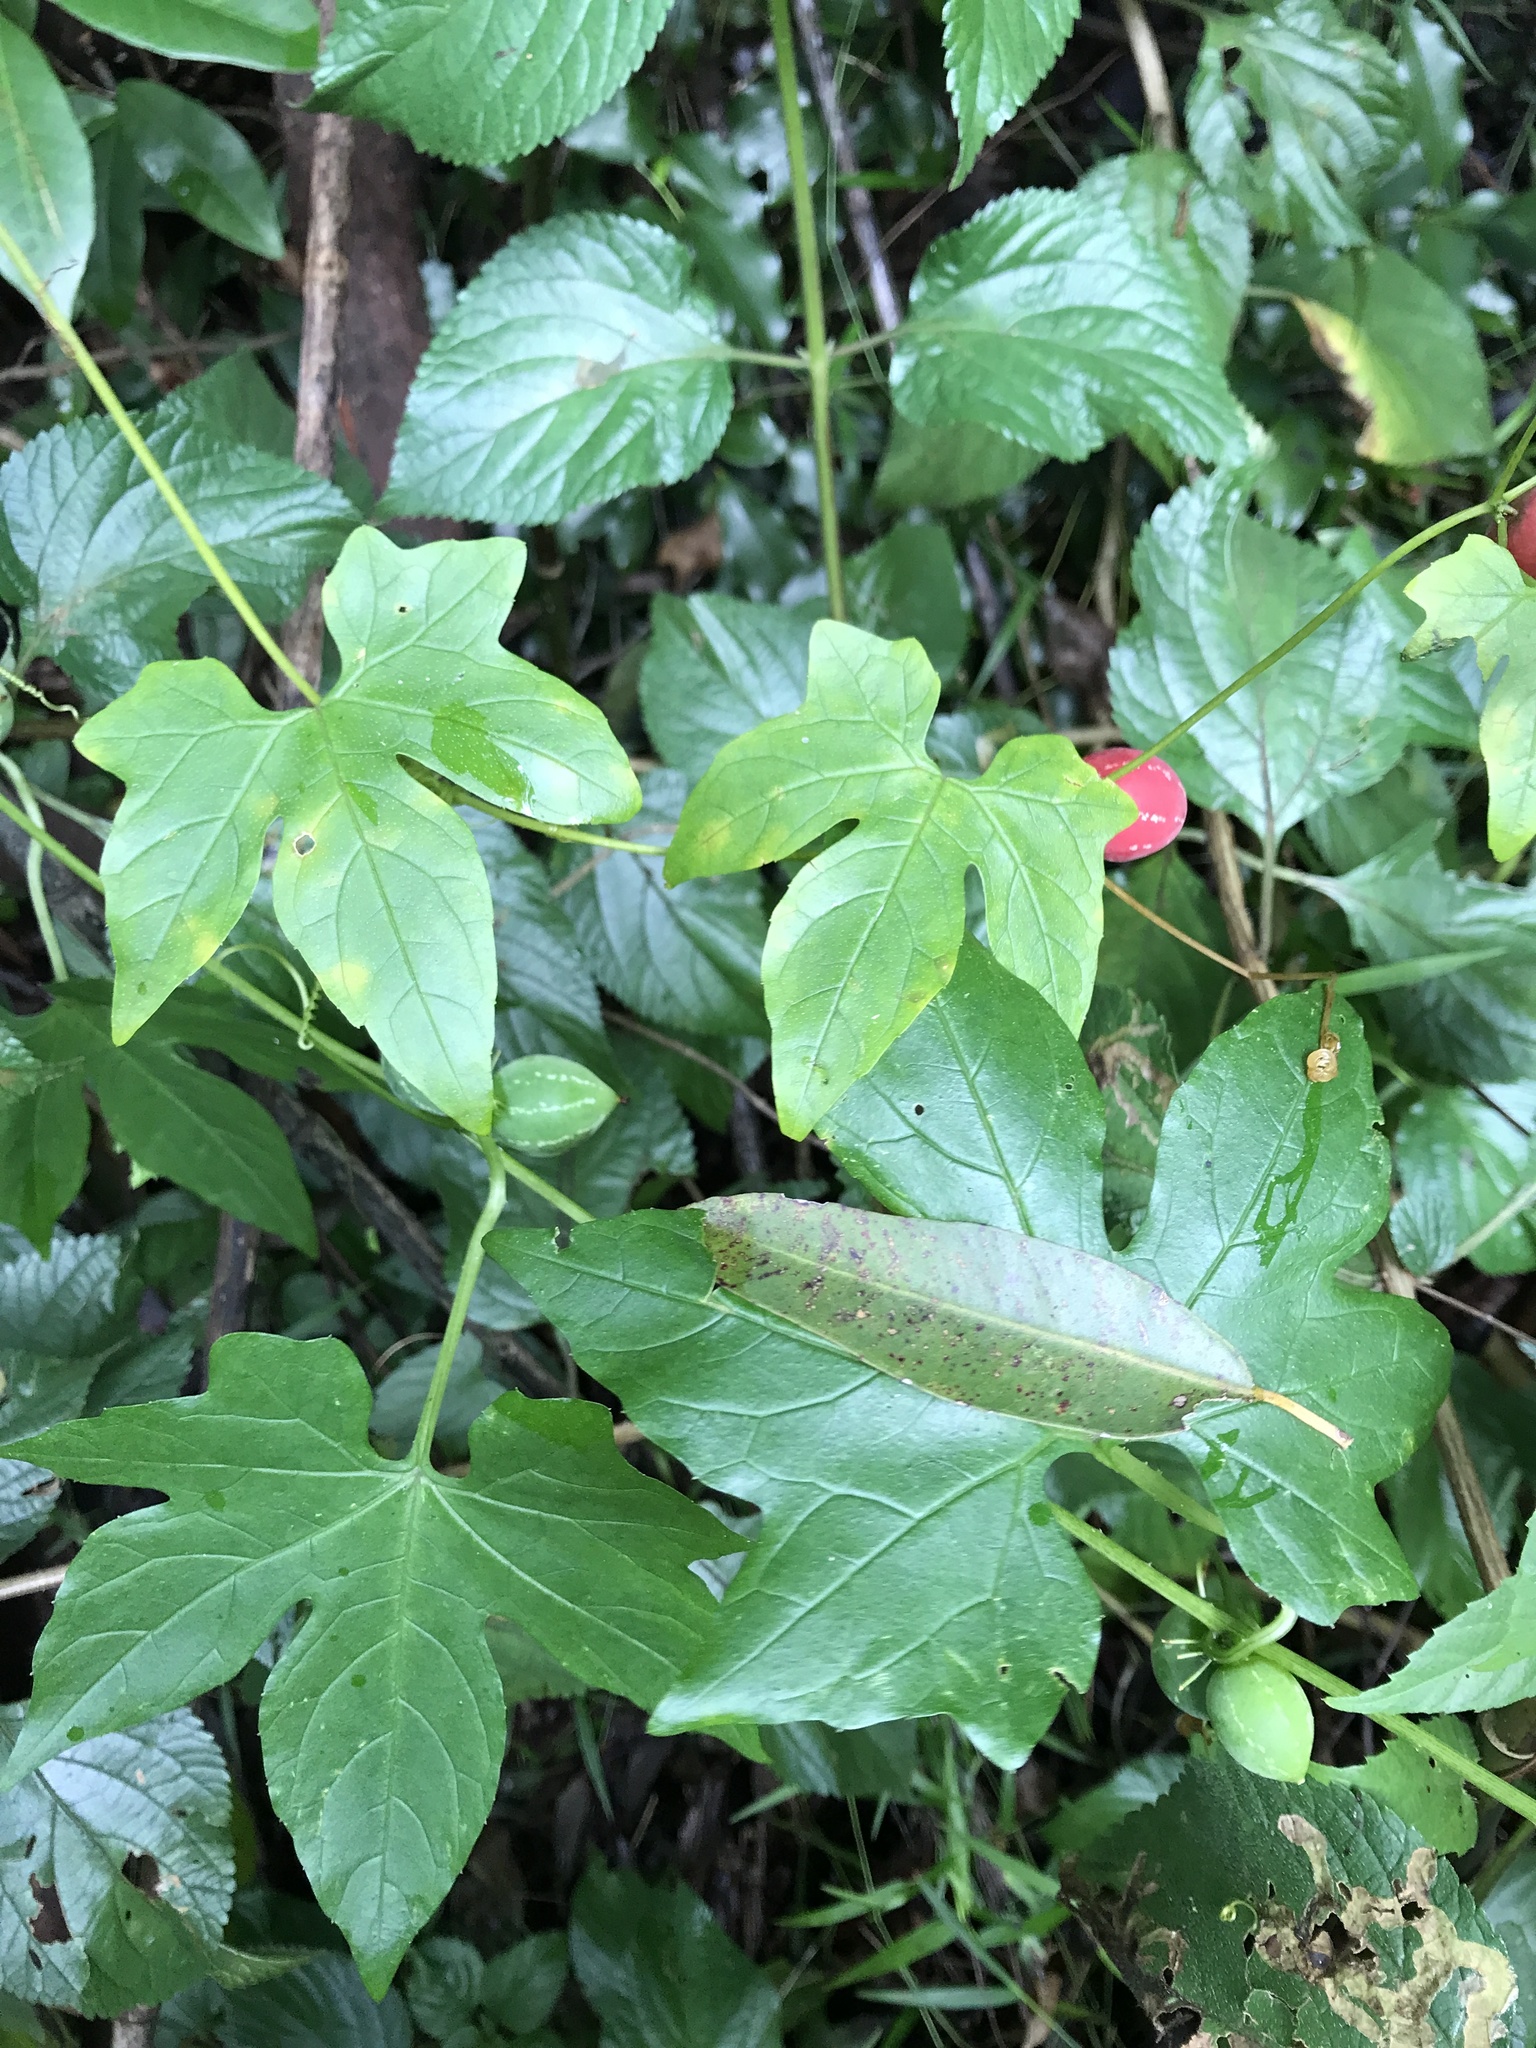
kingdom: Plantae
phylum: Tracheophyta
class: Magnoliopsida
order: Cucurbitales
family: Cucurbitaceae
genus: Diplocyclos
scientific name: Diplocyclos palmatus
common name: Striped-cucumber
